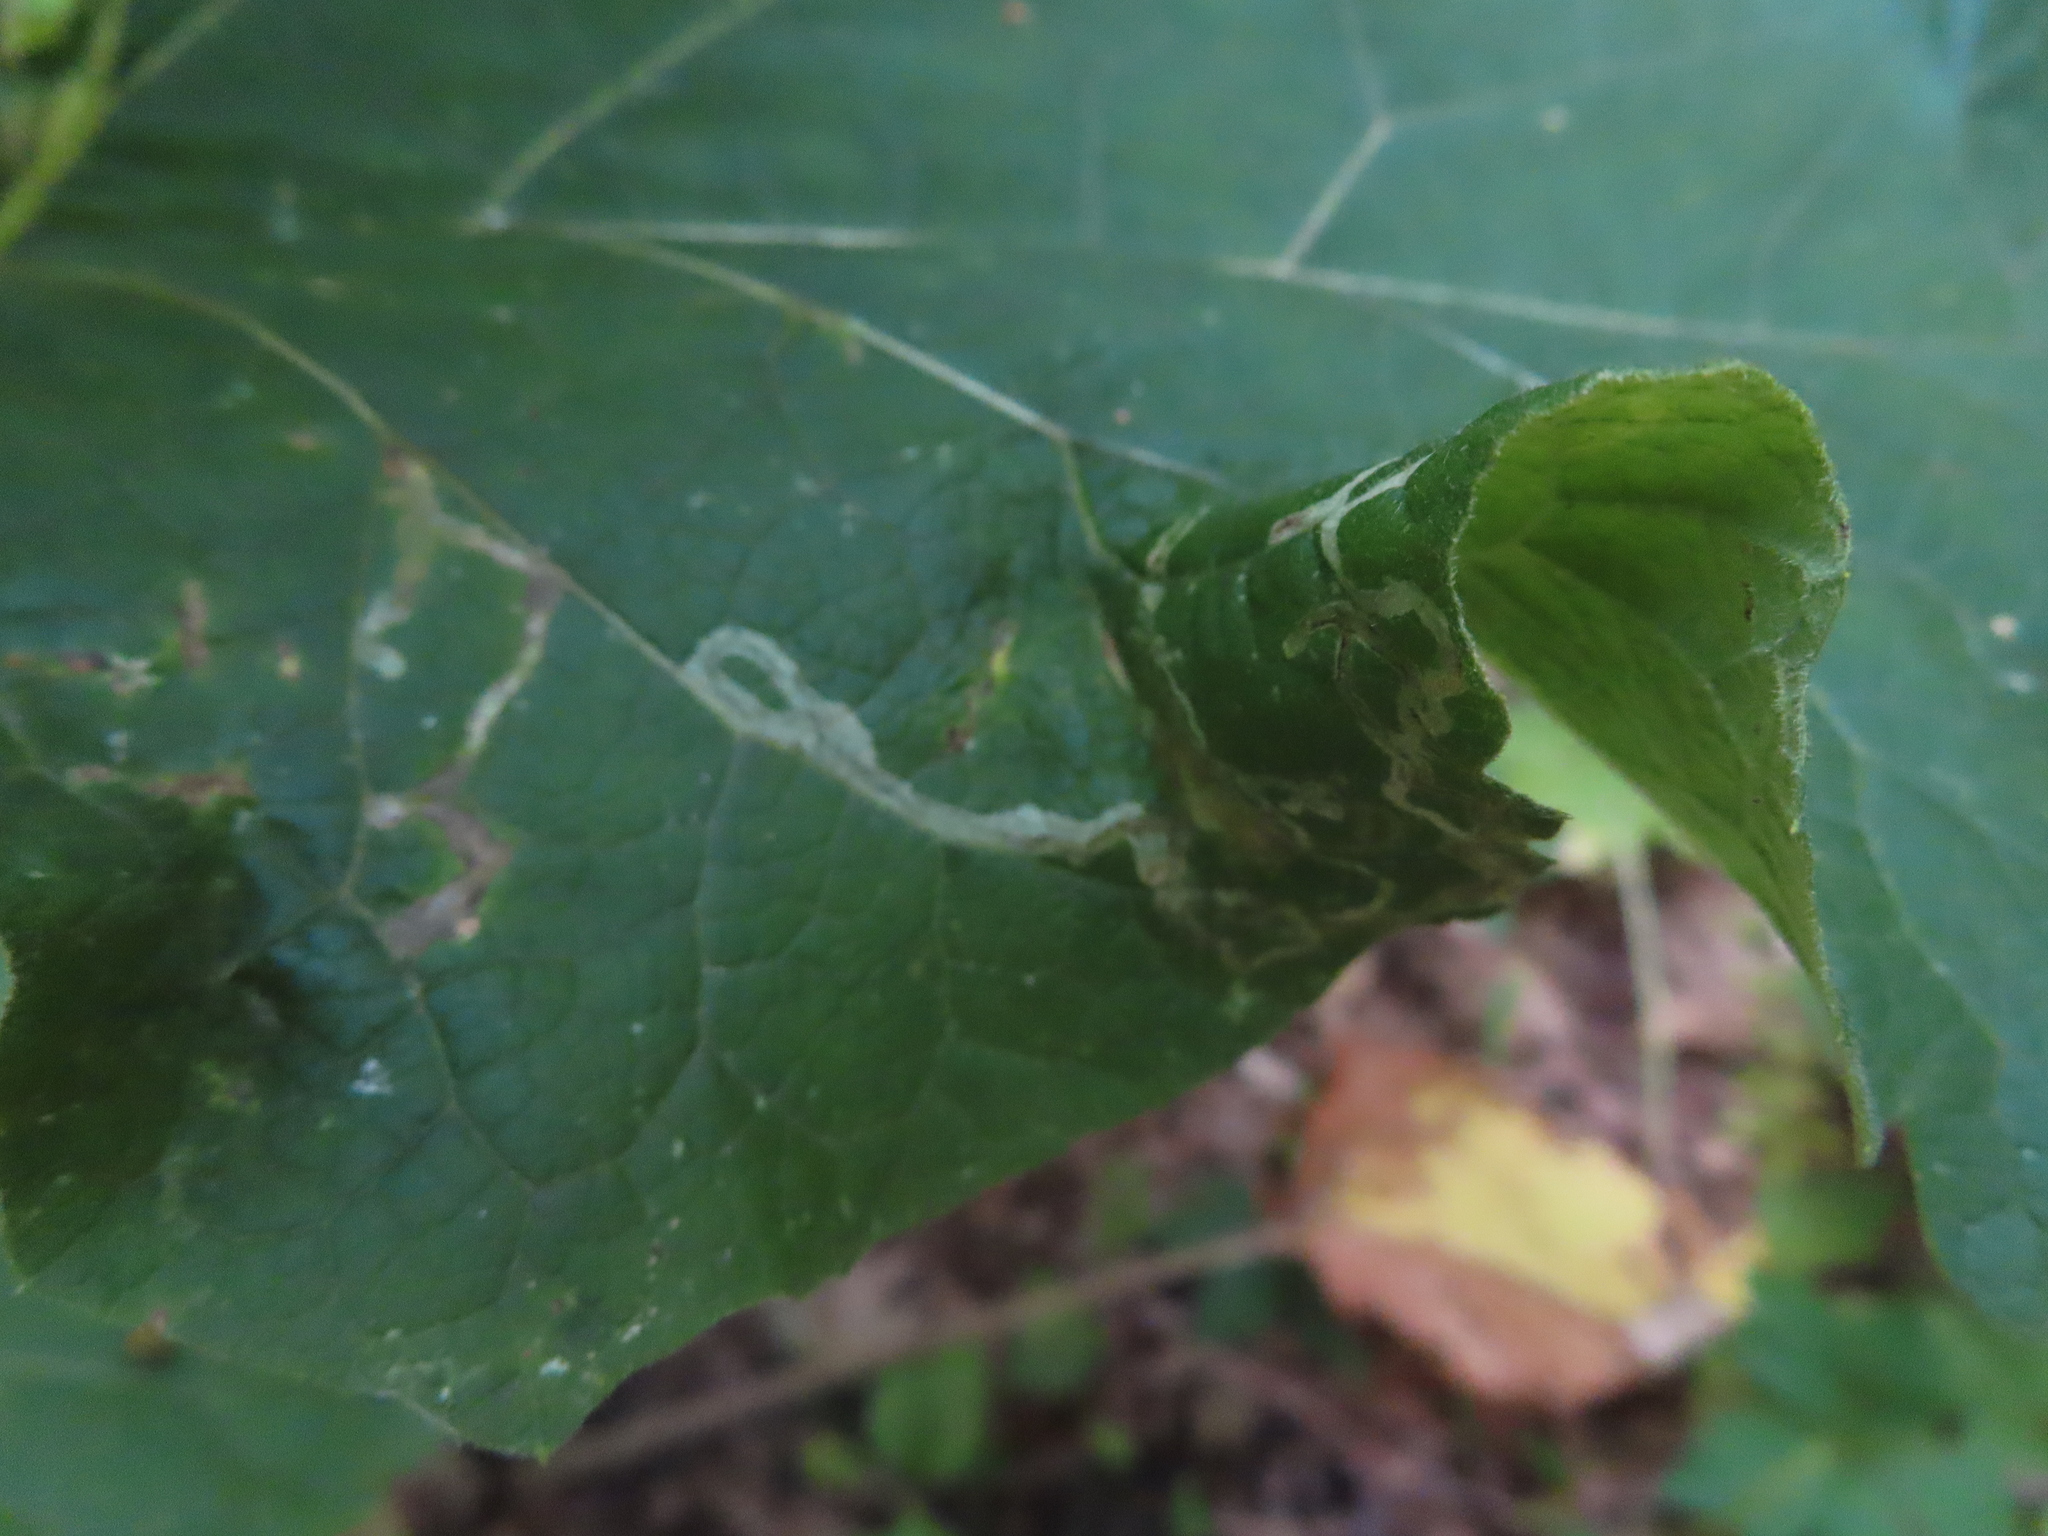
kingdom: Animalia
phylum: Arthropoda
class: Insecta
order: Diptera
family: Agromyzidae
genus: Liriomyza
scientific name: Liriomyza arctii
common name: Burdock leafminer
